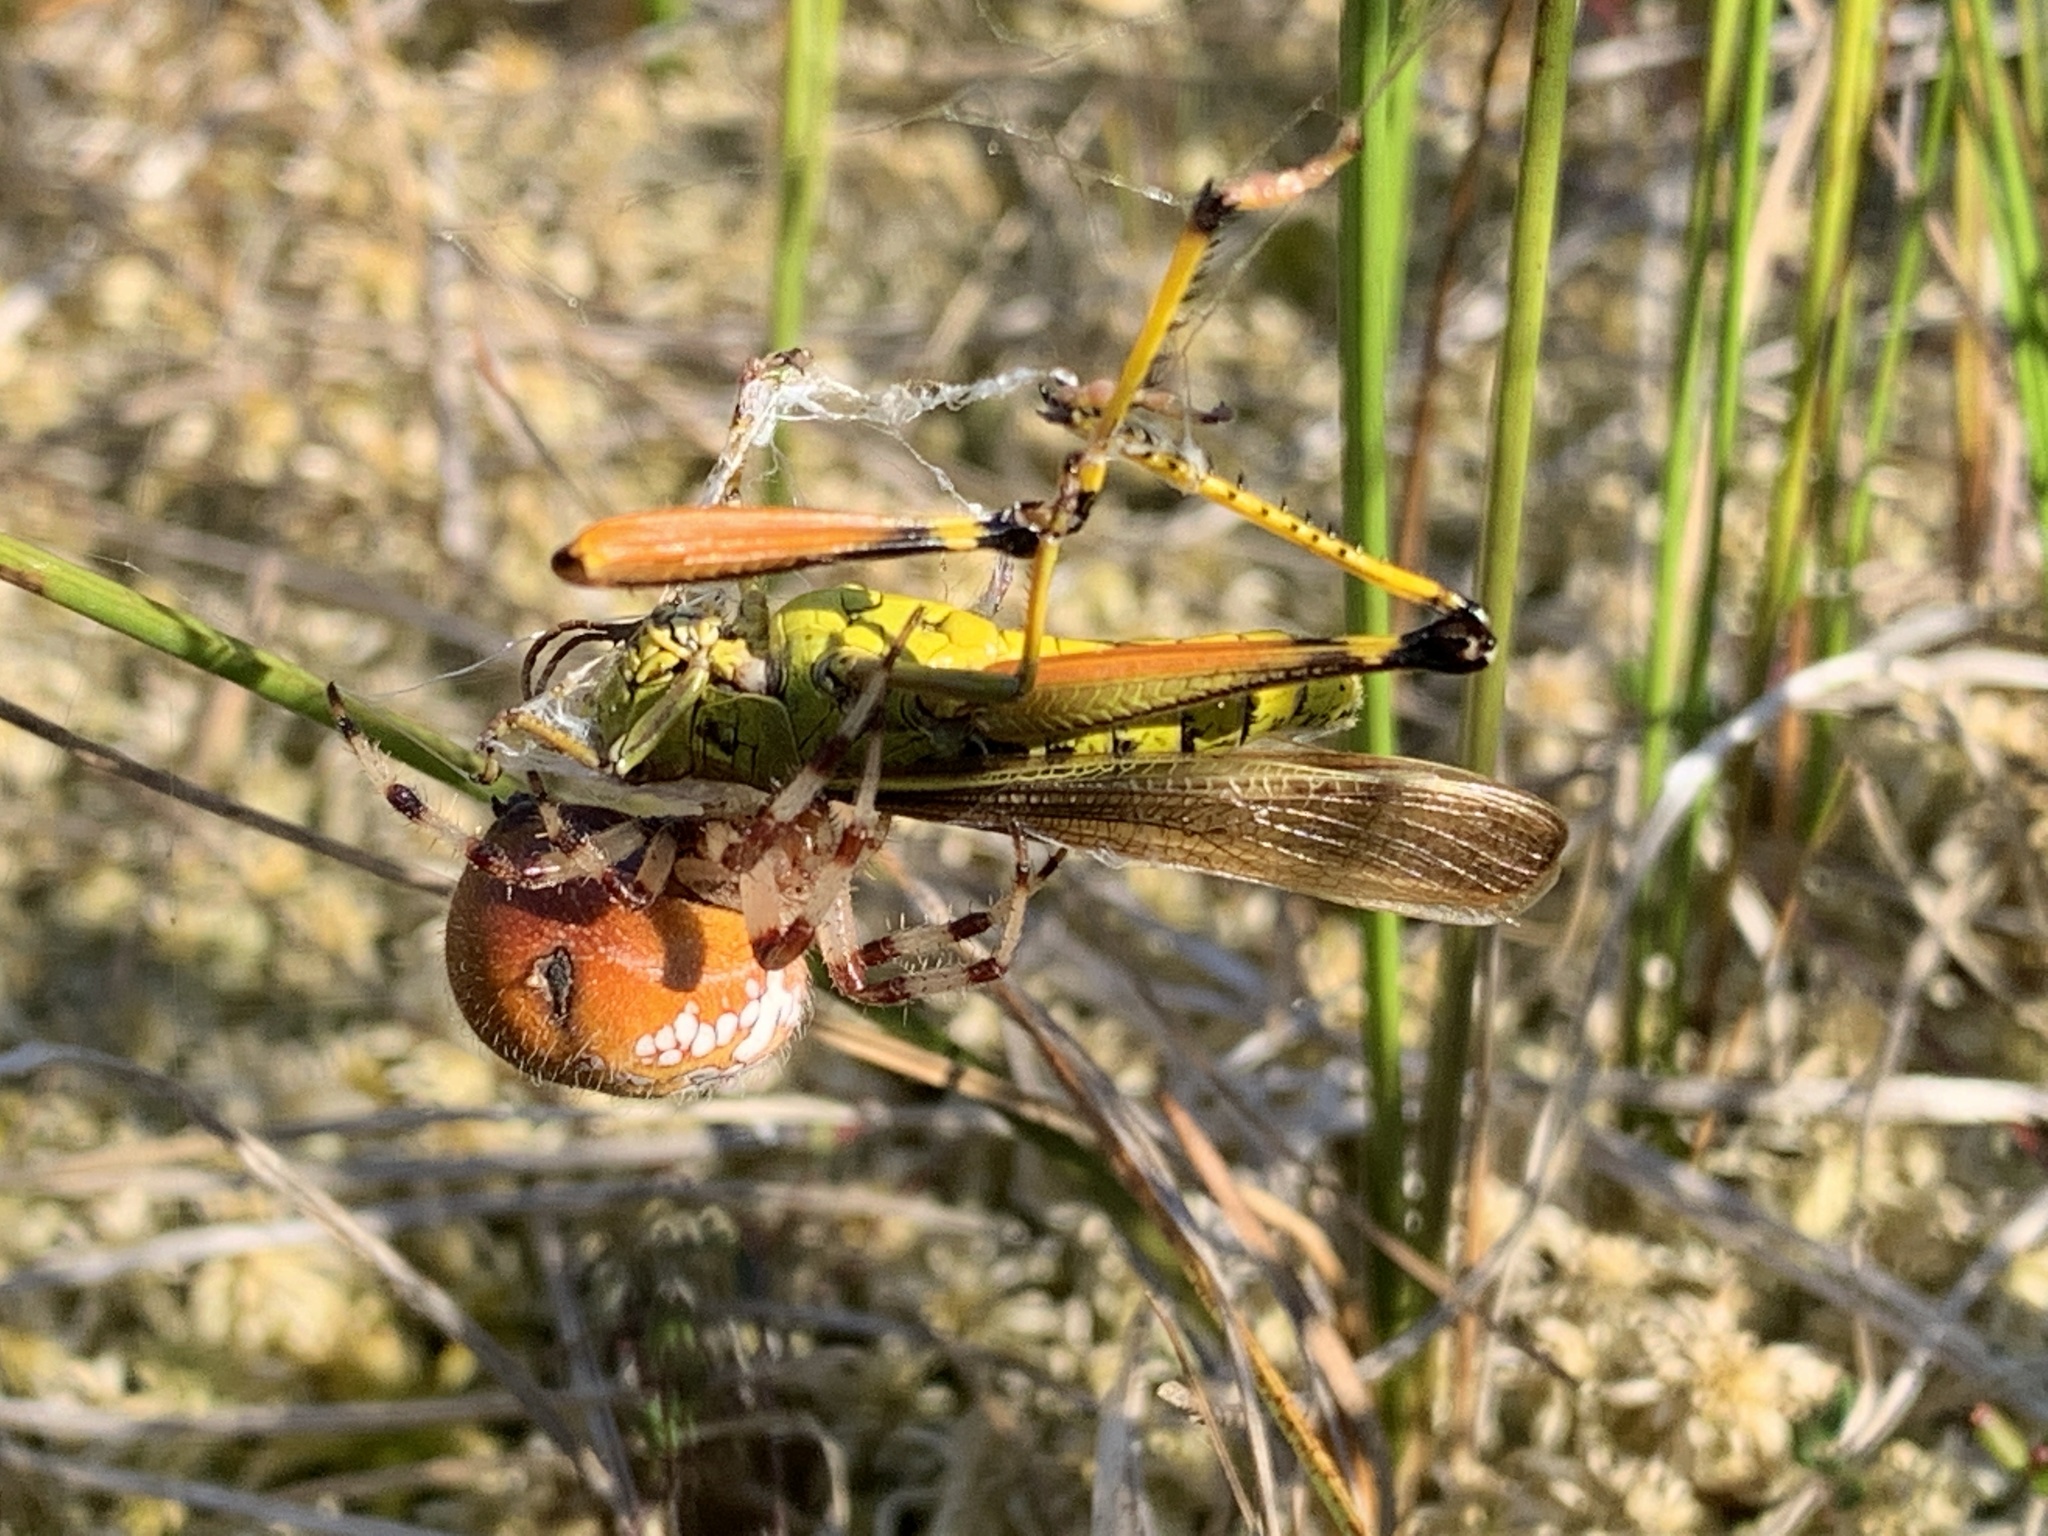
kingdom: Animalia
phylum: Arthropoda
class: Insecta
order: Orthoptera
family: Acrididae
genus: Stethophyma
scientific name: Stethophyma lineatum
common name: Striped sedge locust
